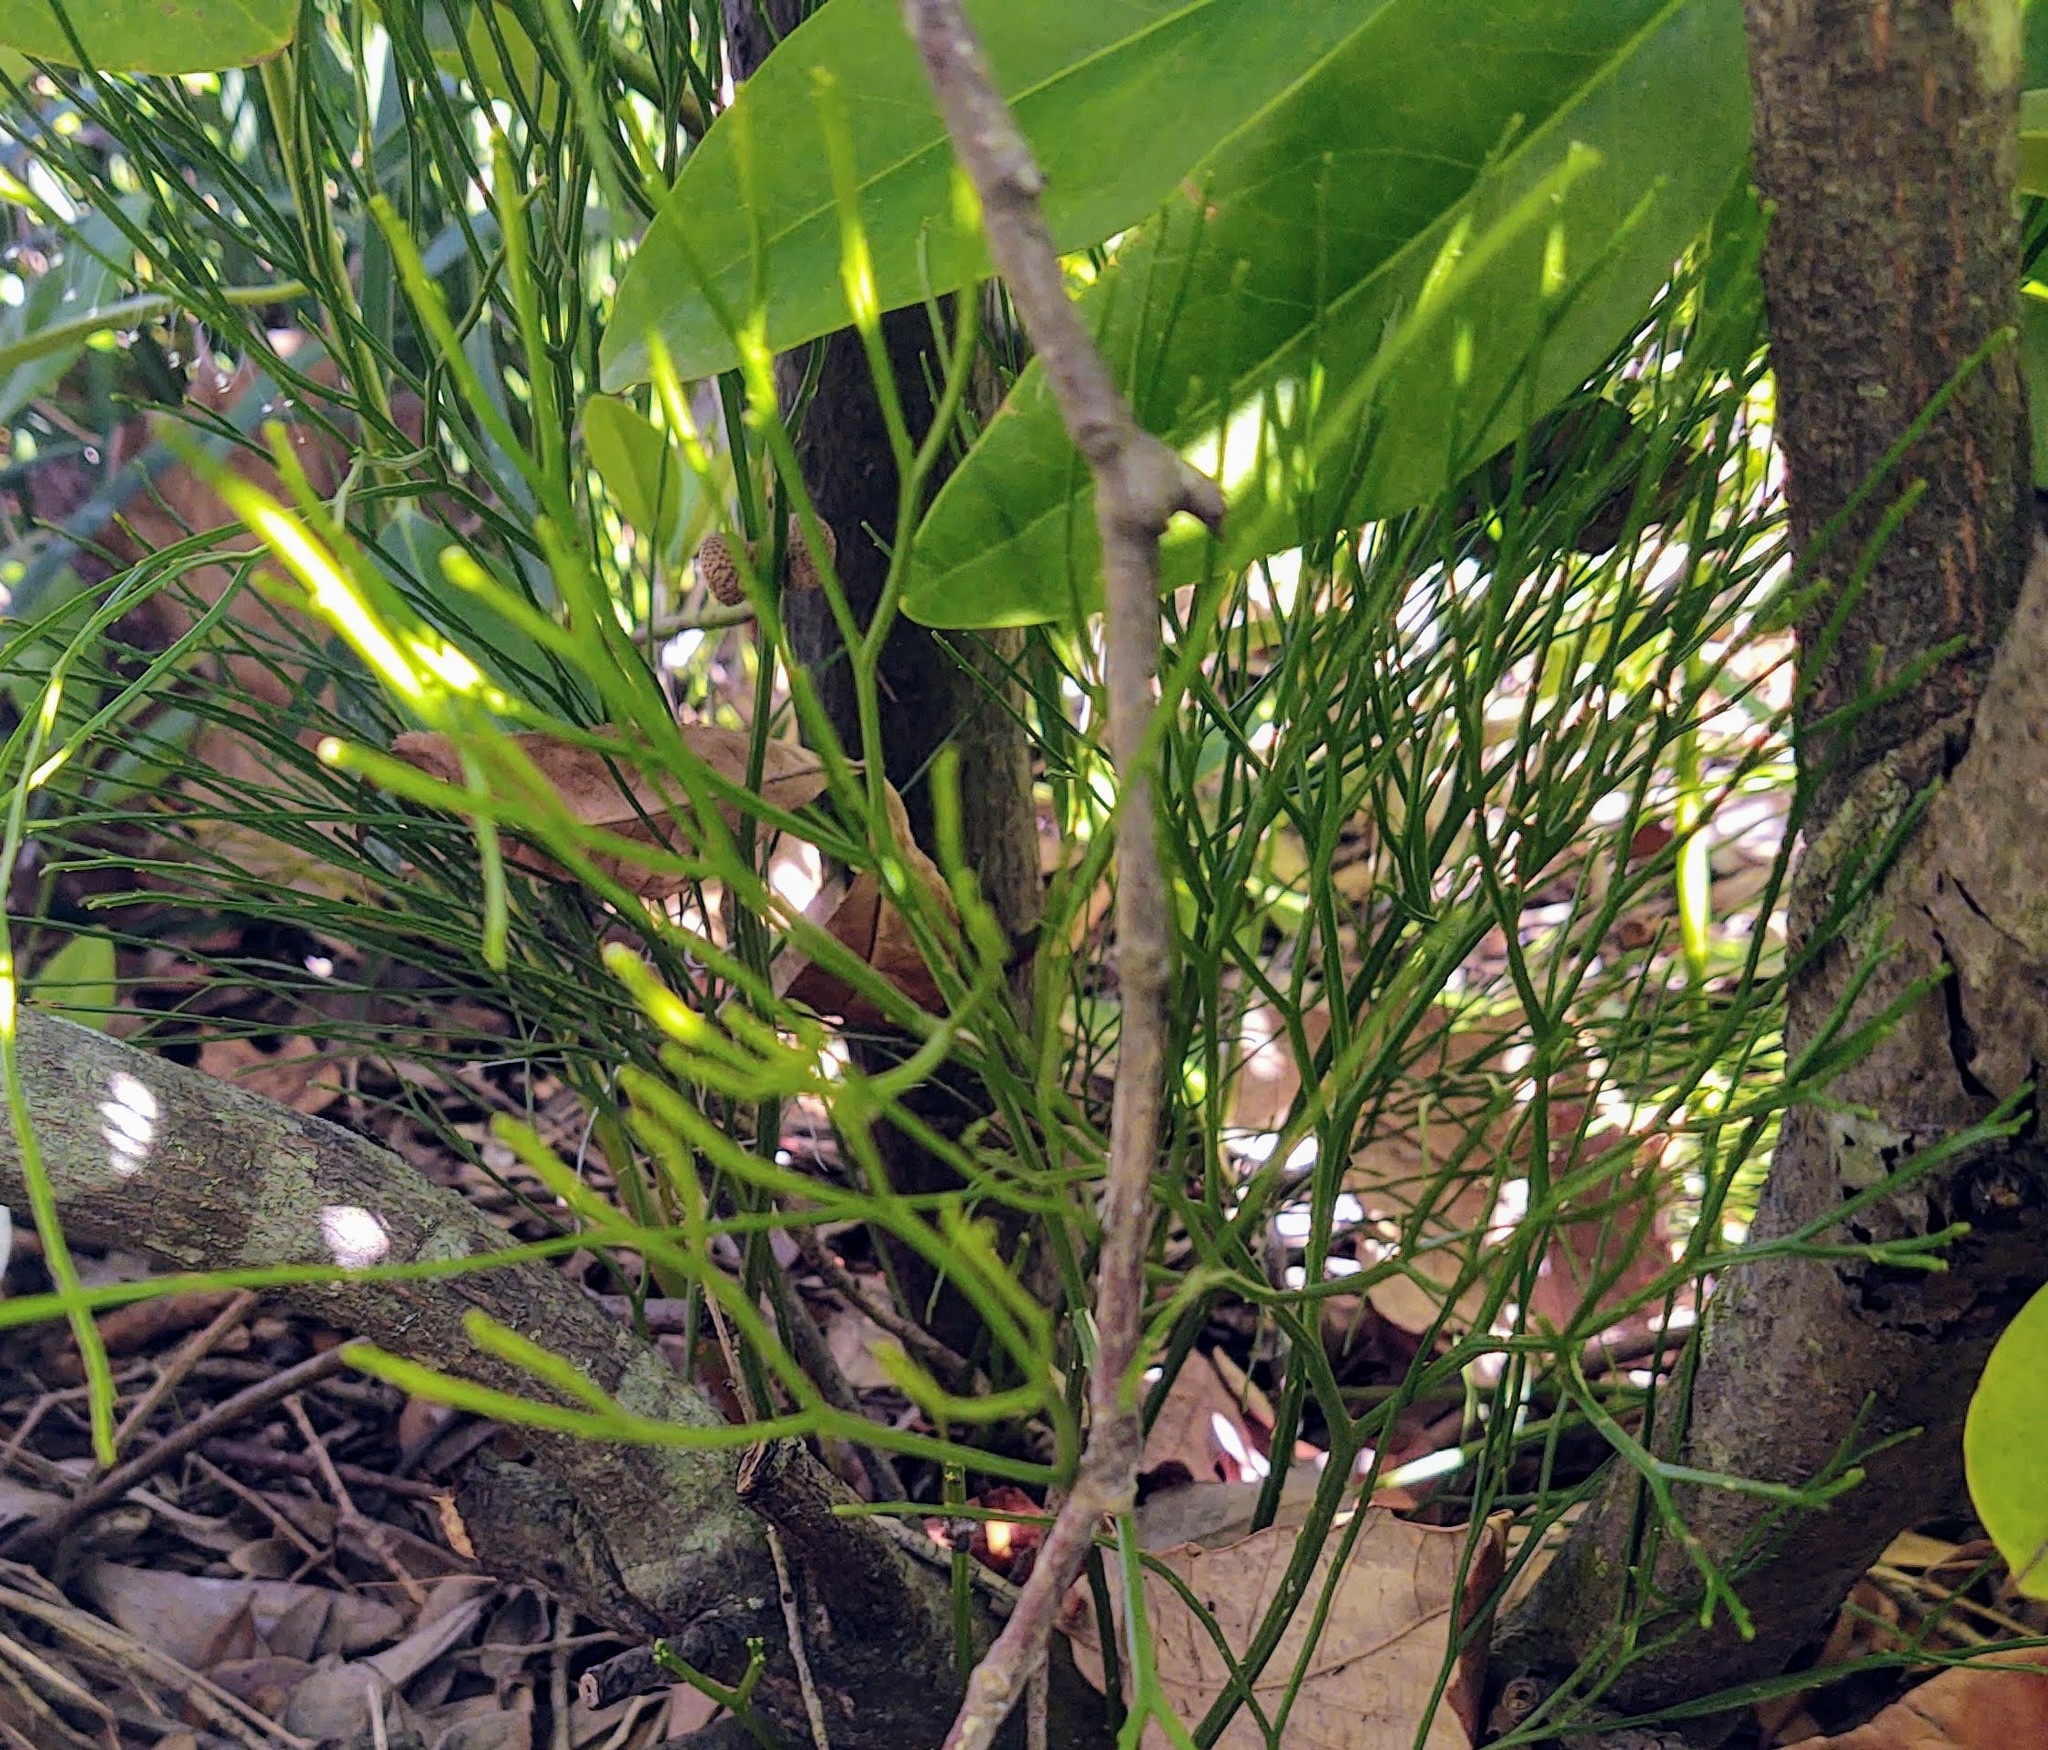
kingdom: Plantae
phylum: Tracheophyta
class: Polypodiopsida
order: Psilotales
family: Psilotaceae
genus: Psilotum
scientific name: Psilotum nudum
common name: Skeleton fork fern
